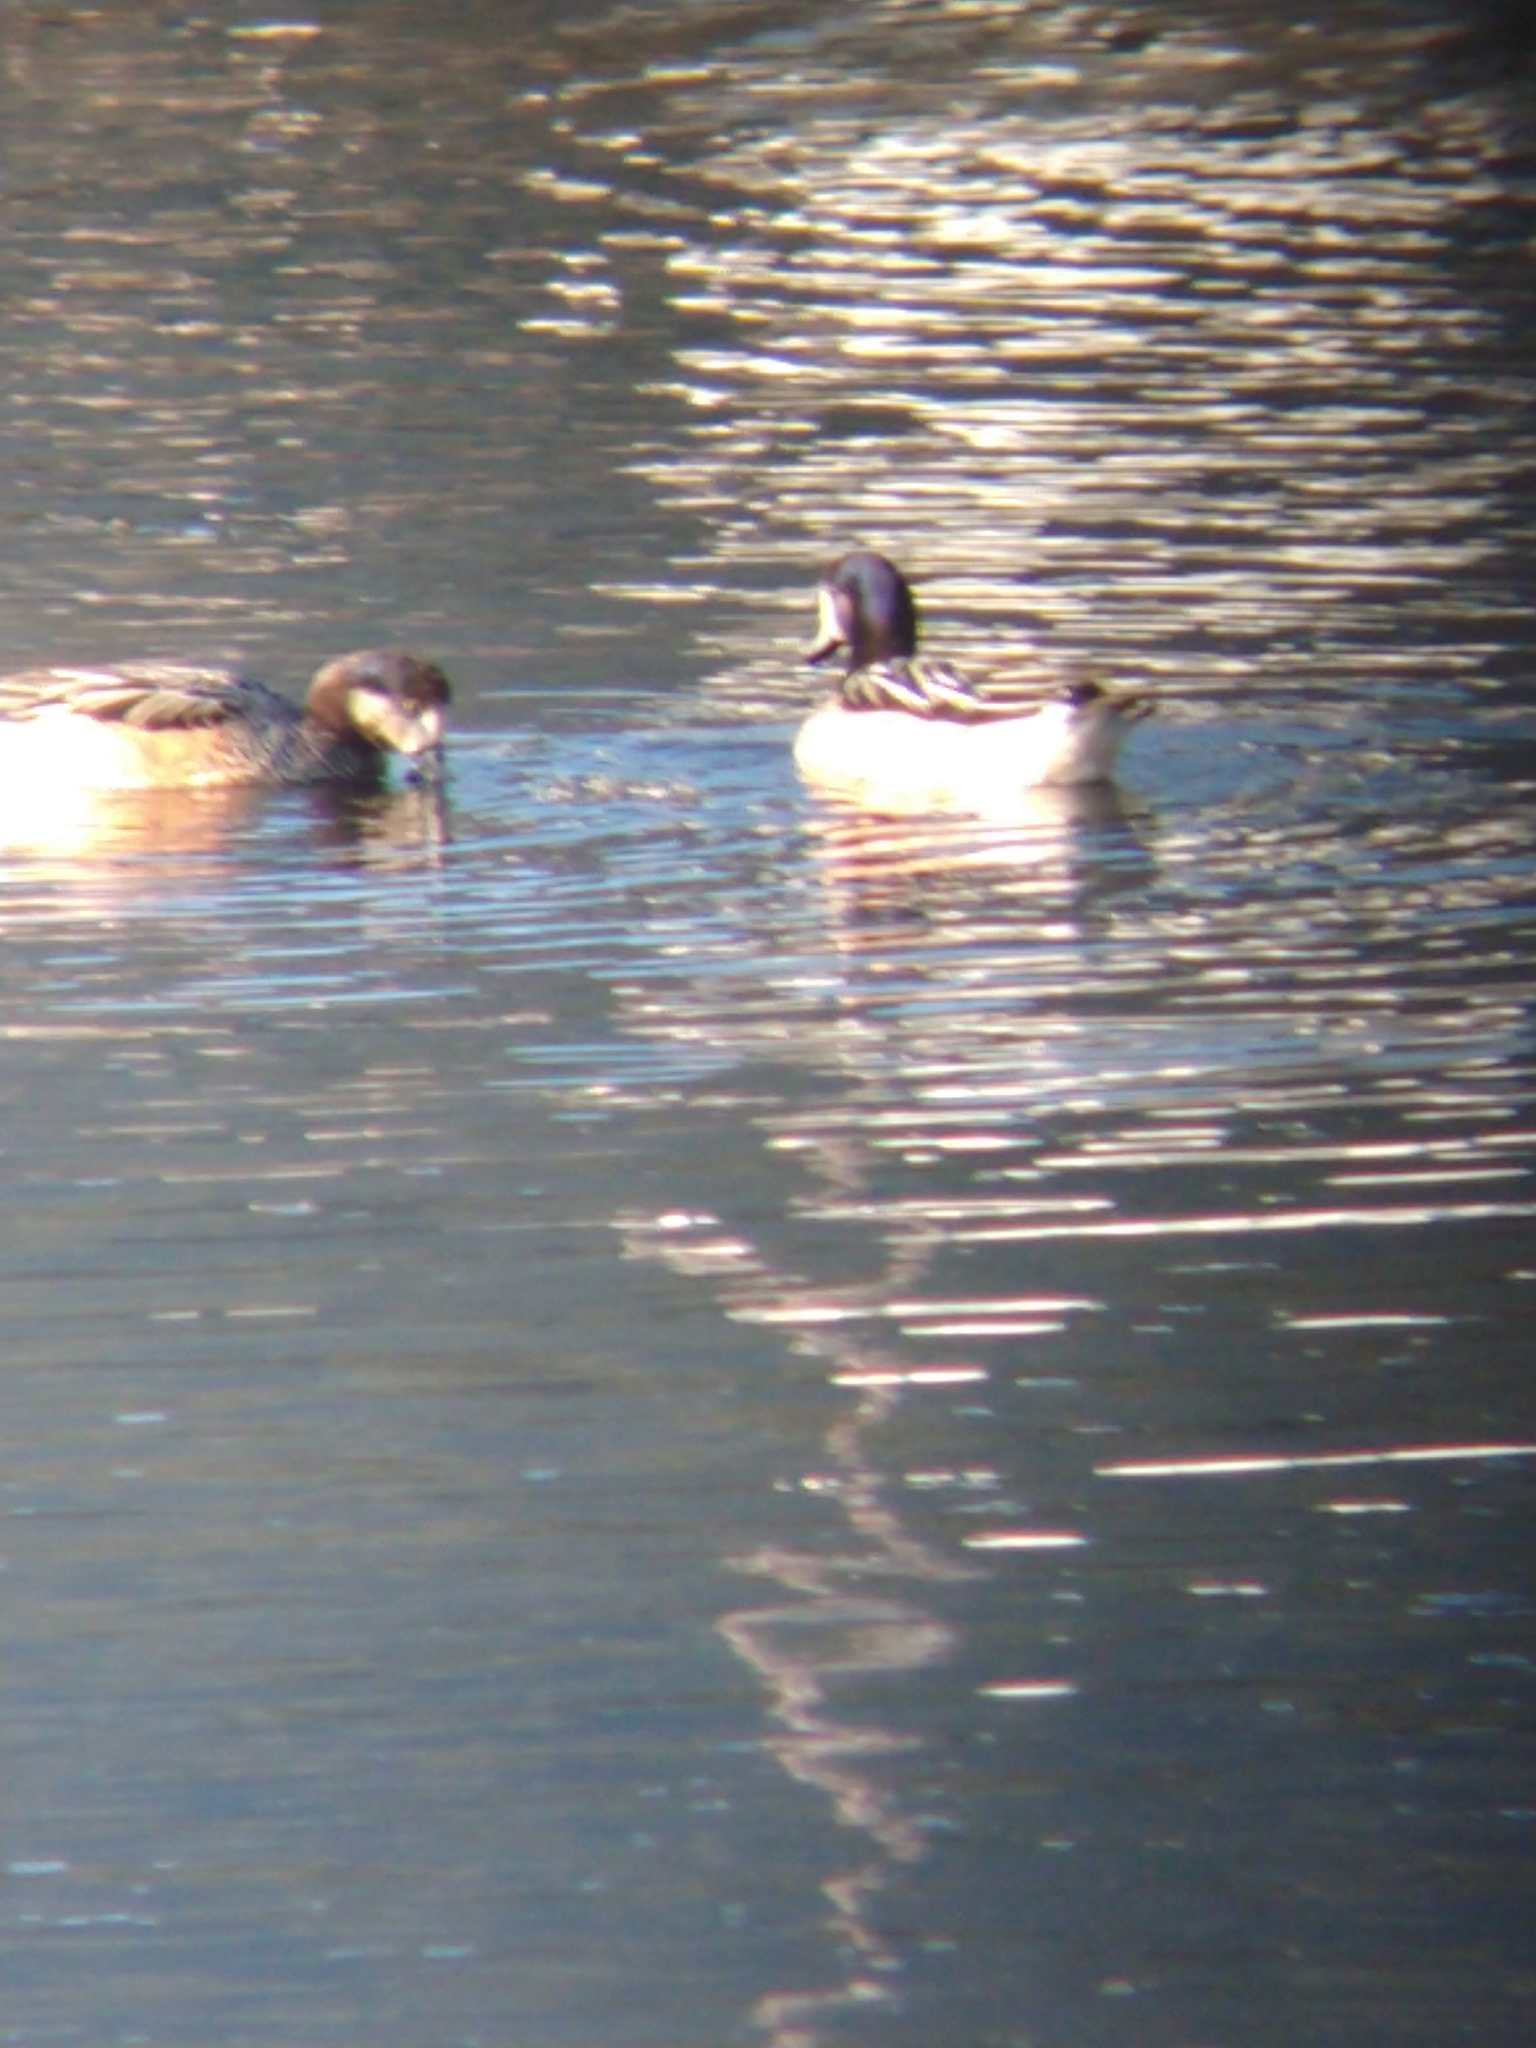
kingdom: Animalia
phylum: Chordata
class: Aves
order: Anseriformes
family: Anatidae
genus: Mareca
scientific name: Mareca sibilatrix
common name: Chiloe wigeon
